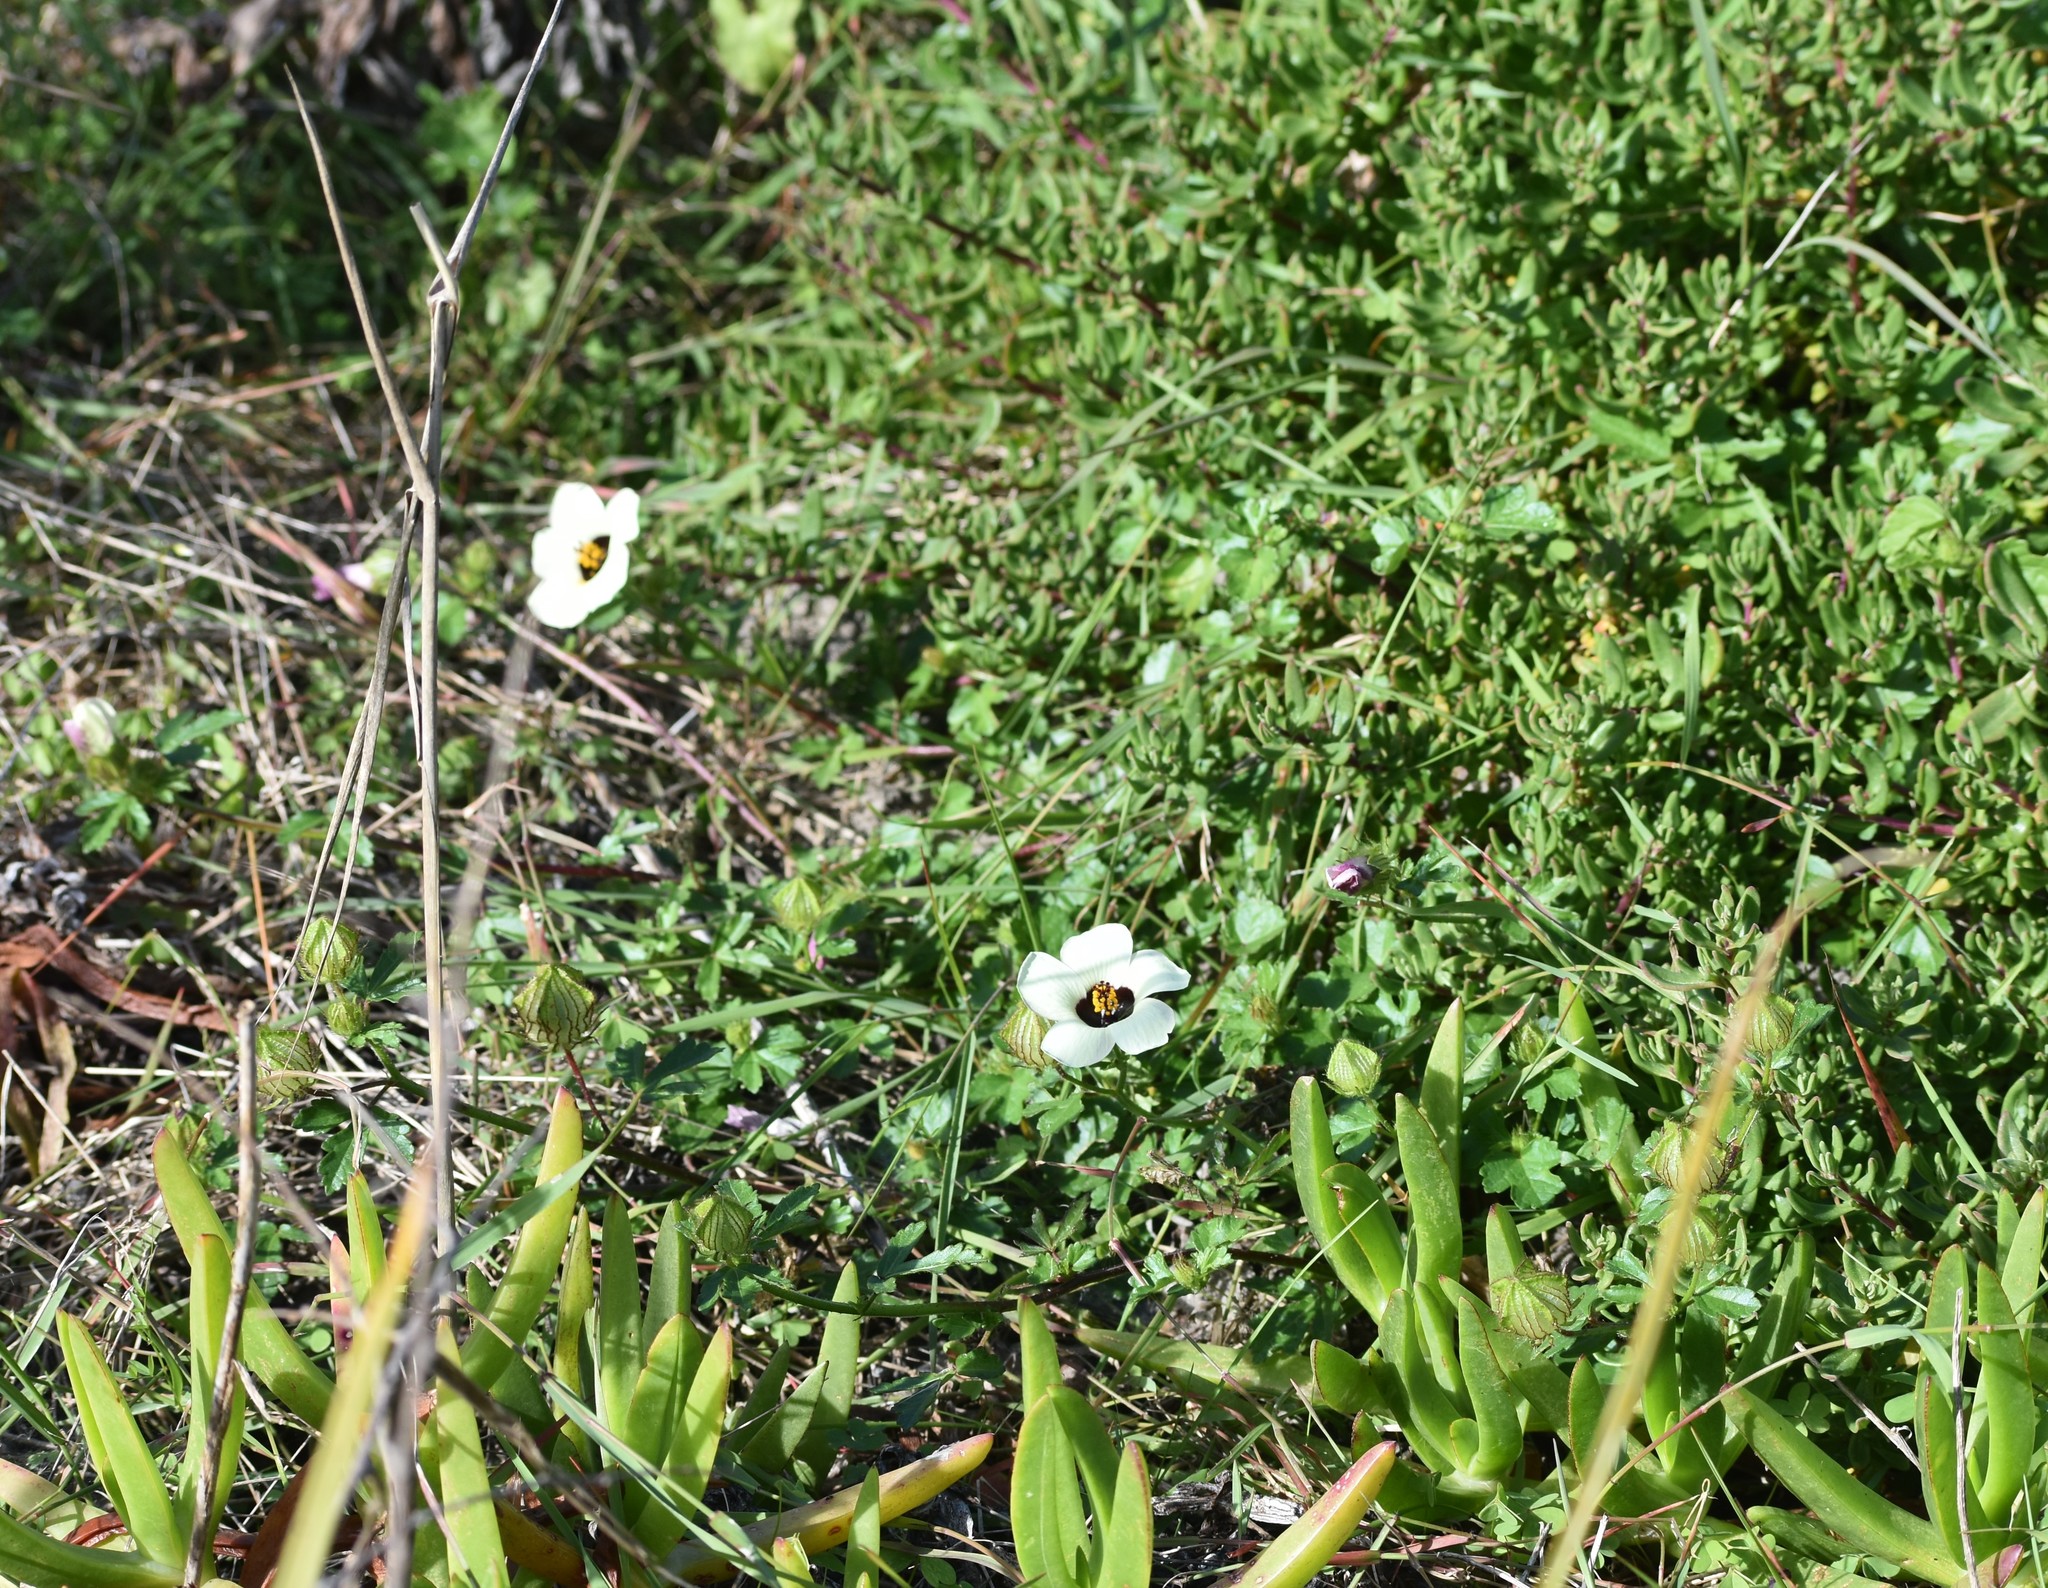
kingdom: Plantae
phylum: Tracheophyta
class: Magnoliopsida
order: Malvales
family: Malvaceae
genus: Hibiscus
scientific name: Hibiscus trionum
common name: Bladder ketmia
